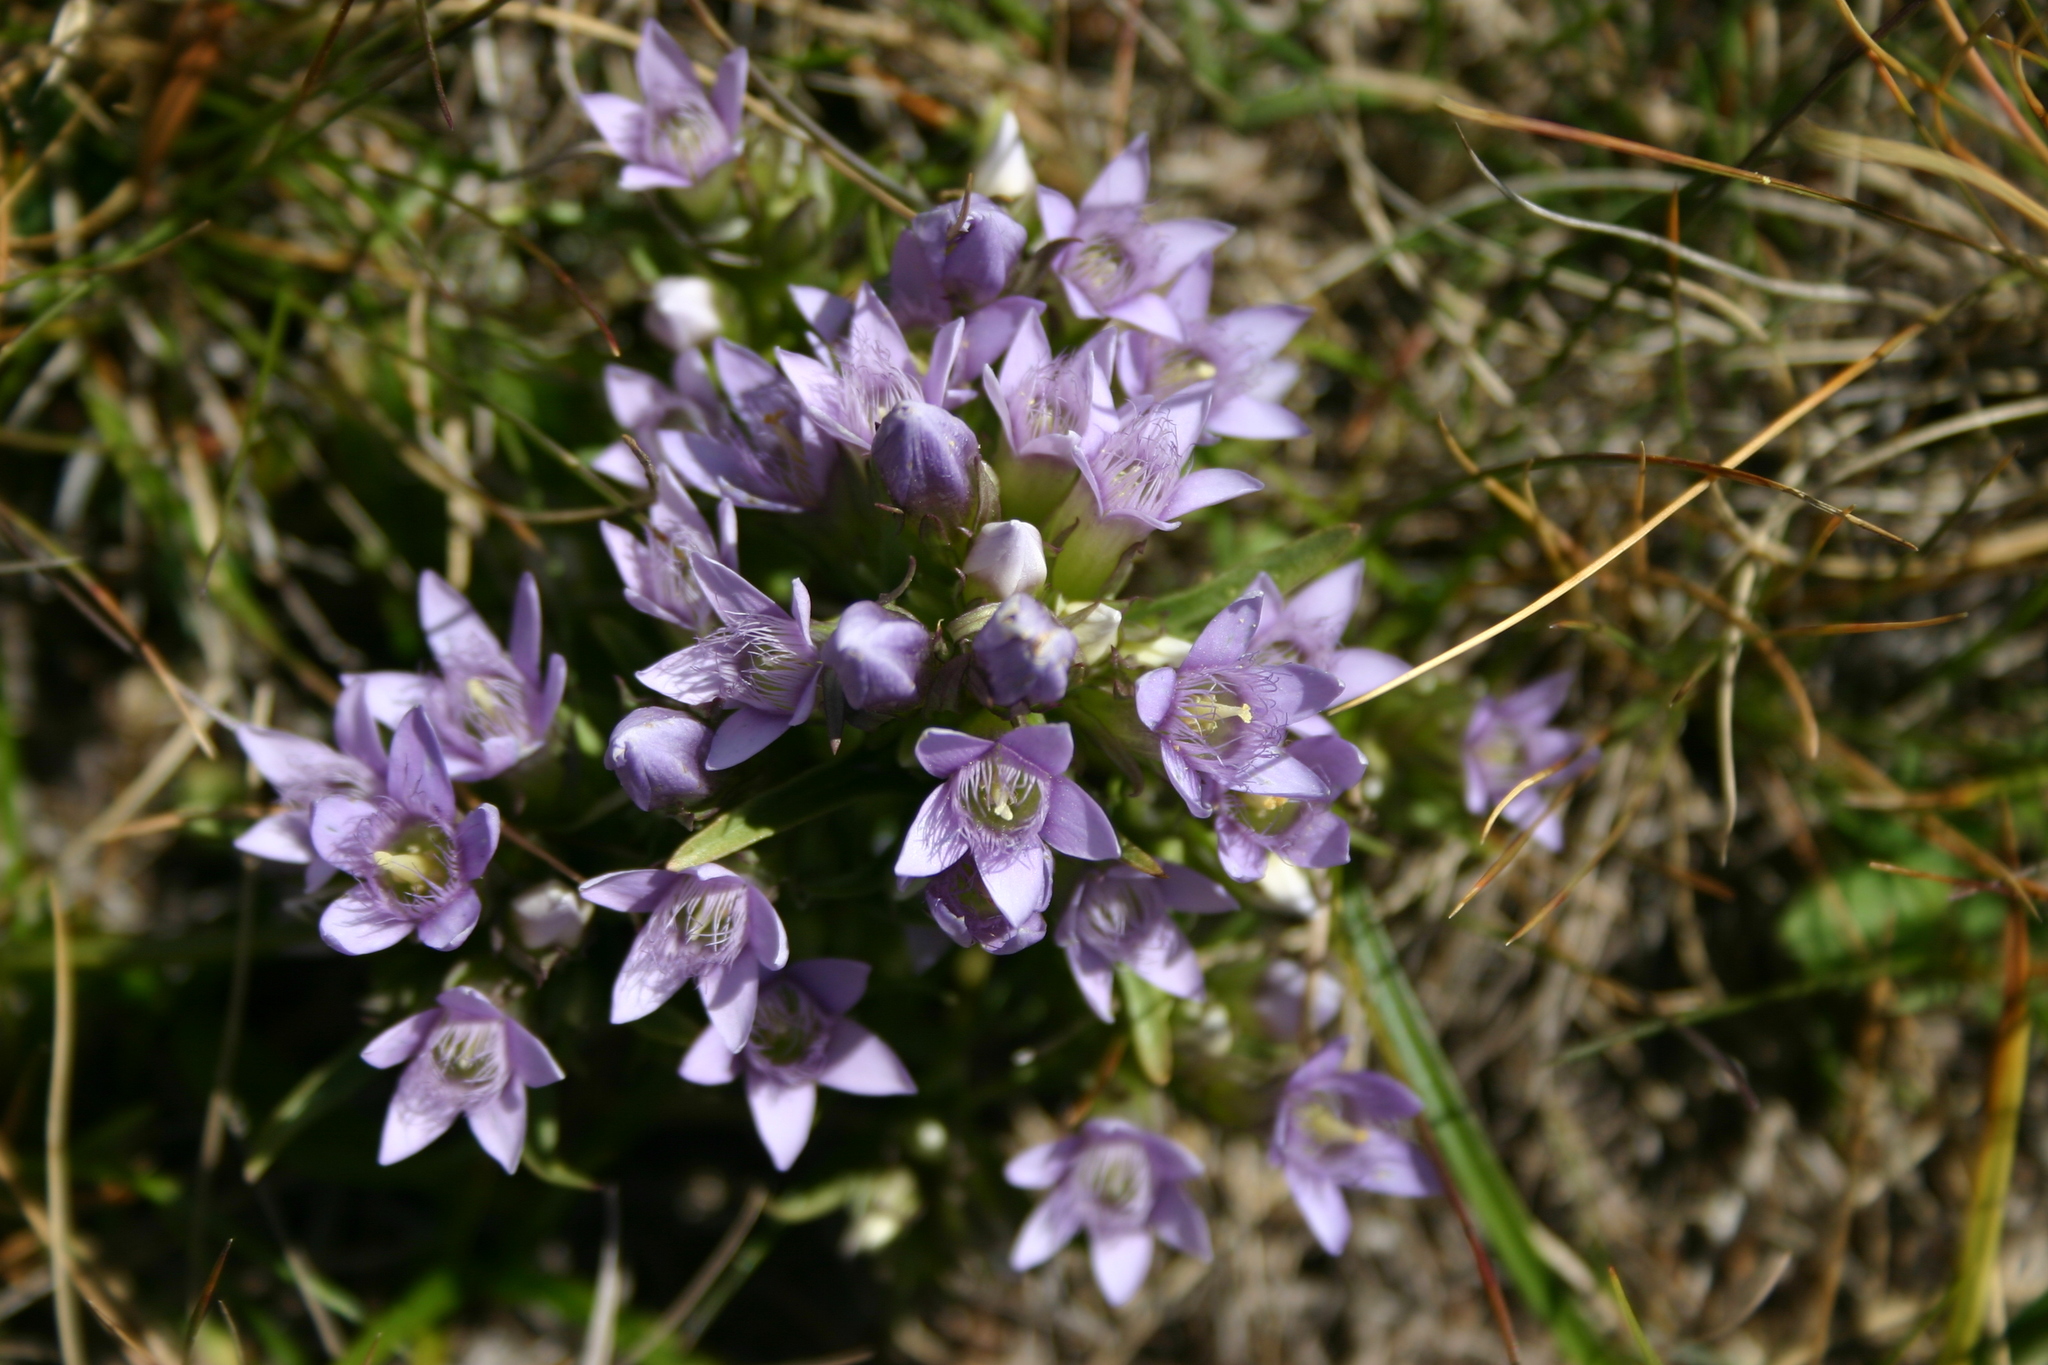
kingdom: Plantae
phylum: Tracheophyta
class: Magnoliopsida
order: Gentianales
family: Gentianaceae
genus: Gentianella
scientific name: Gentianella ramosa
